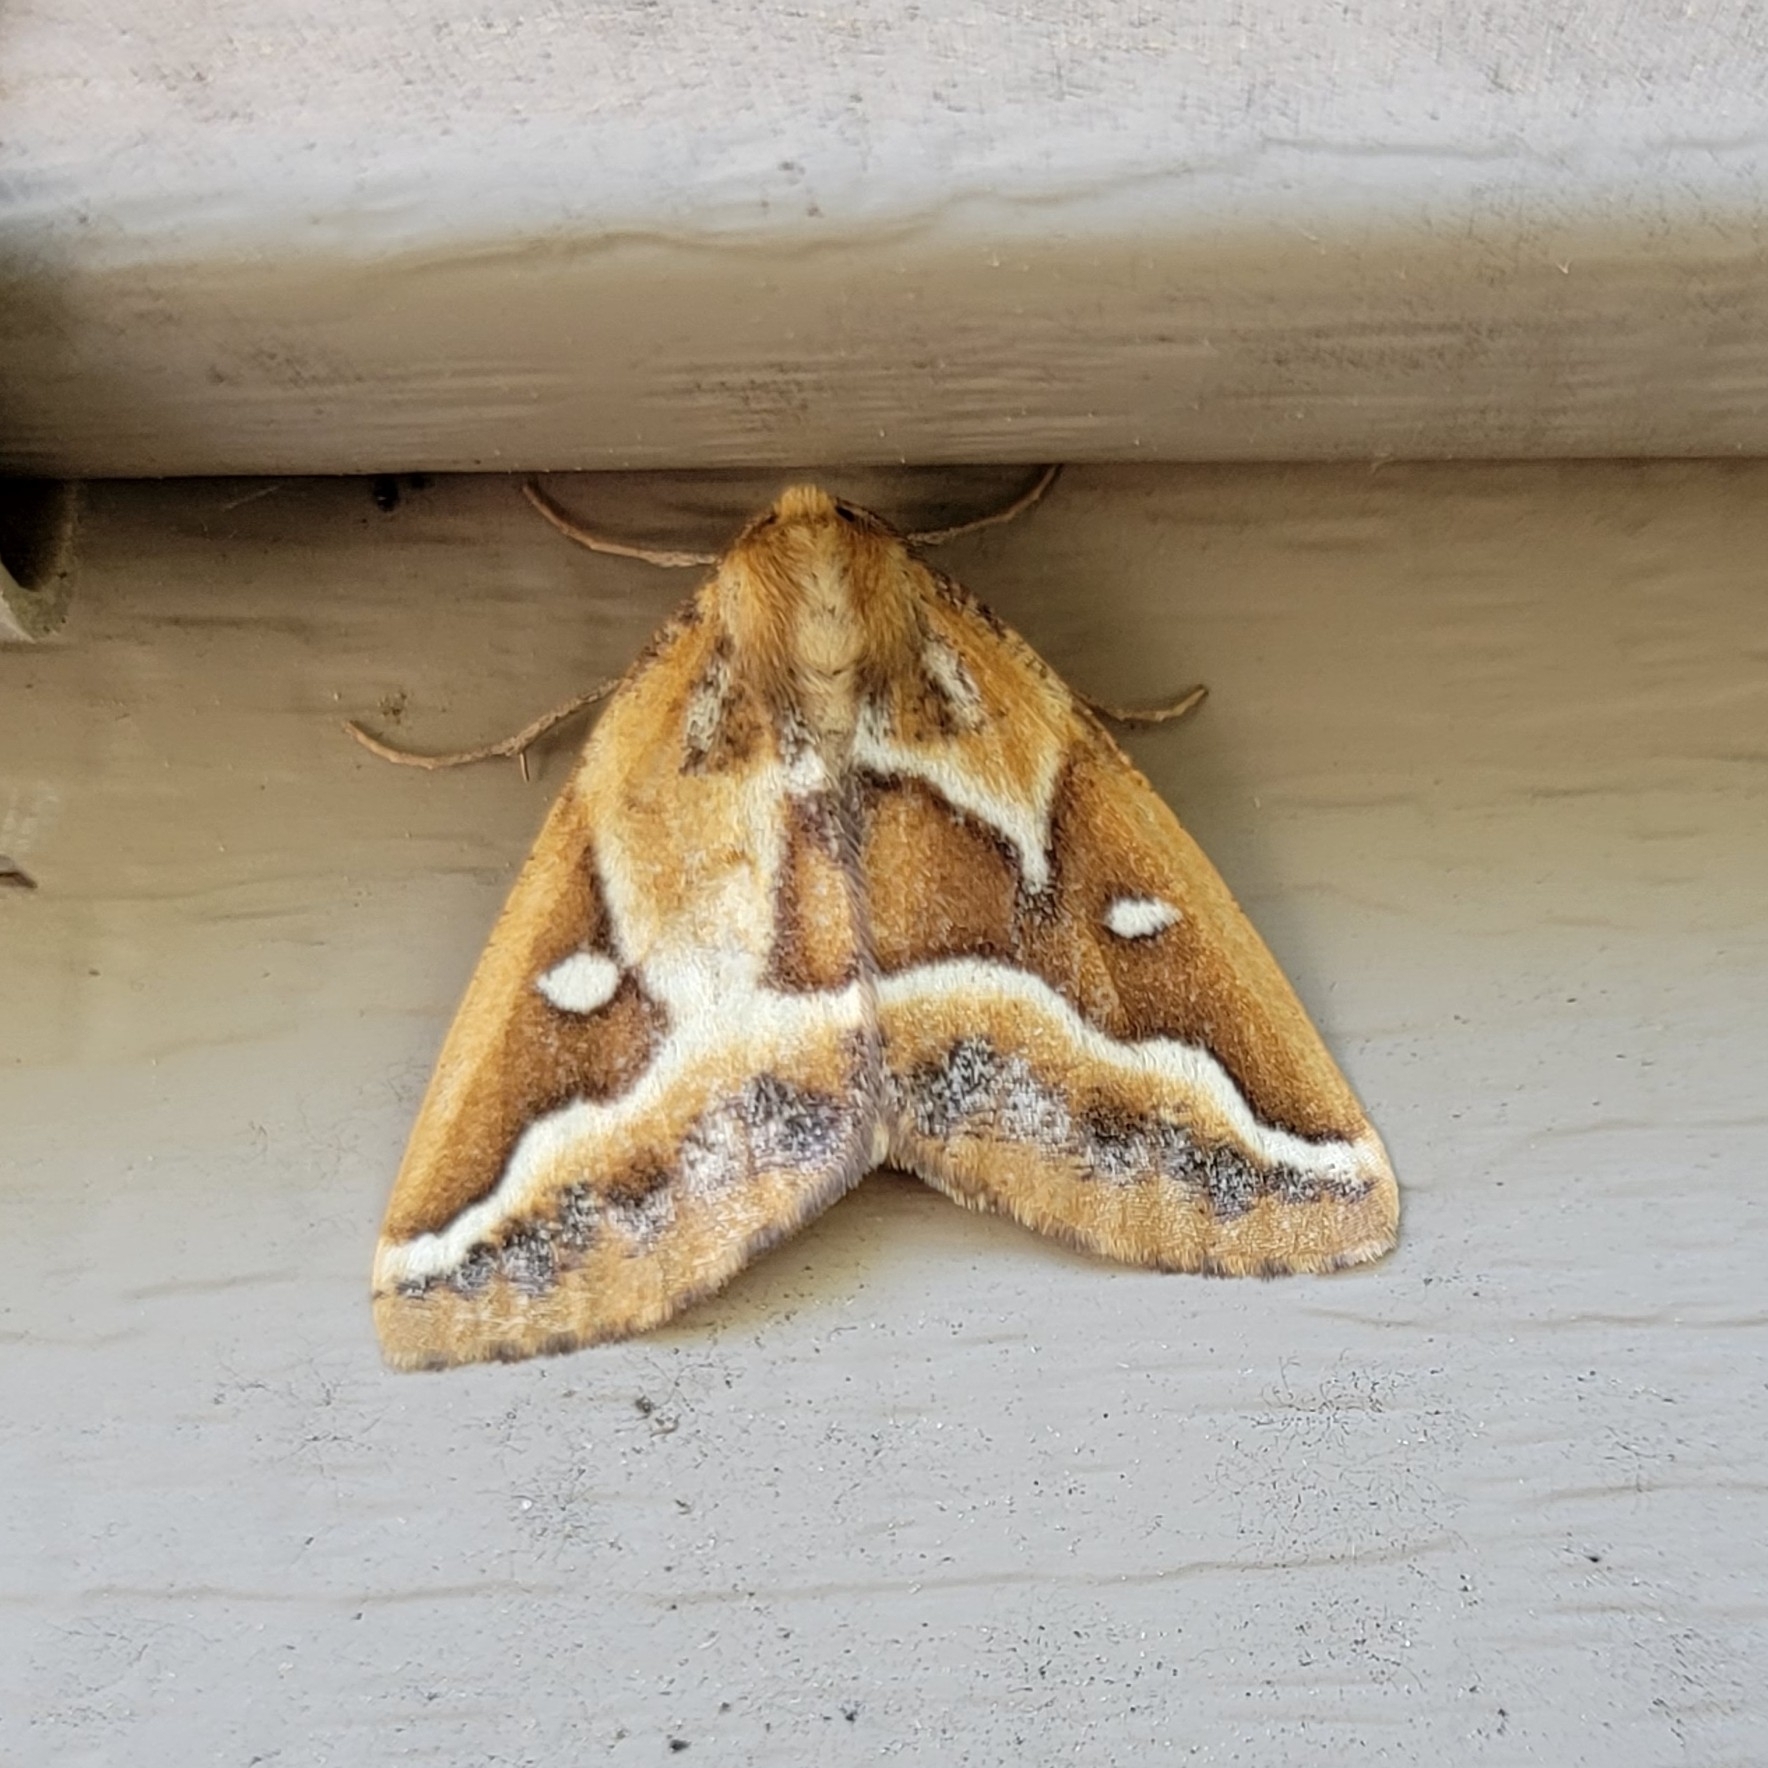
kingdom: Animalia
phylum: Arthropoda
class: Insecta
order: Lepidoptera
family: Geometridae
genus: Caripeta
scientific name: Caripeta angustiorata
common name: Brown pine looper
